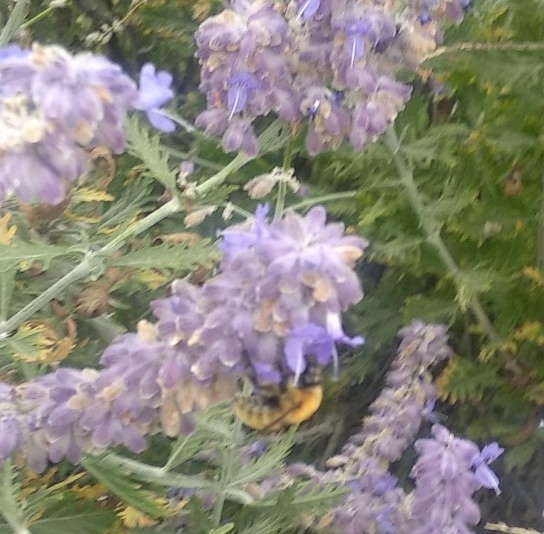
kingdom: Animalia
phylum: Arthropoda
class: Insecta
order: Hymenoptera
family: Apidae
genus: Bombus
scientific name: Bombus pascuorum
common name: Common carder bee
